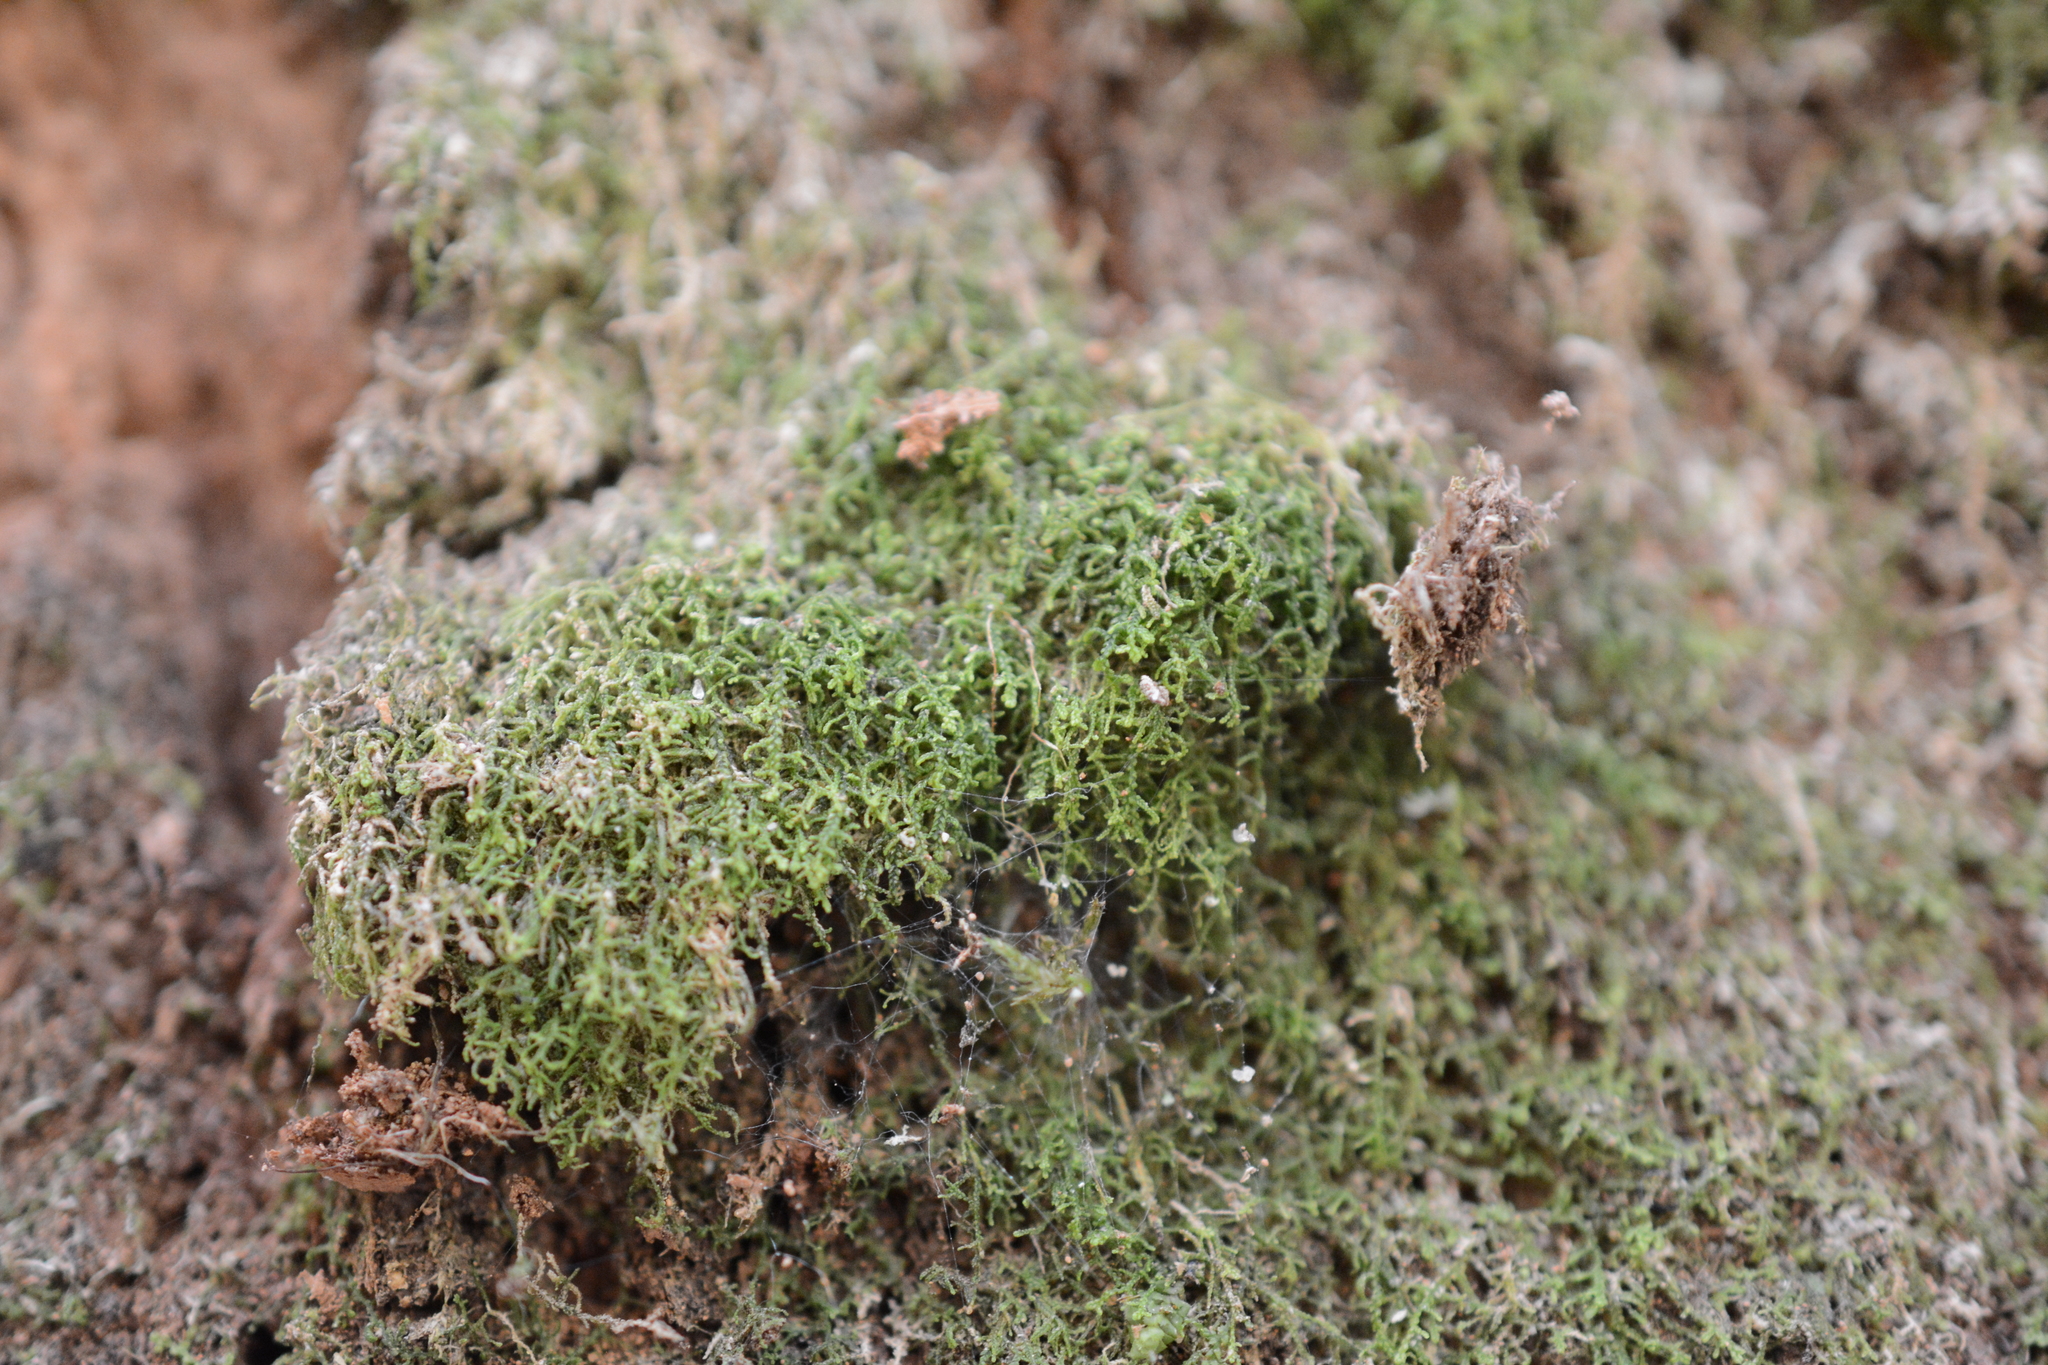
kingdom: Plantae
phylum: Marchantiophyta
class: Jungermanniopsida
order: Jungermanniales
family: Lepidoziaceae
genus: Lepidozia
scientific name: Lepidozia reptans
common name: Creeping fingerwort
